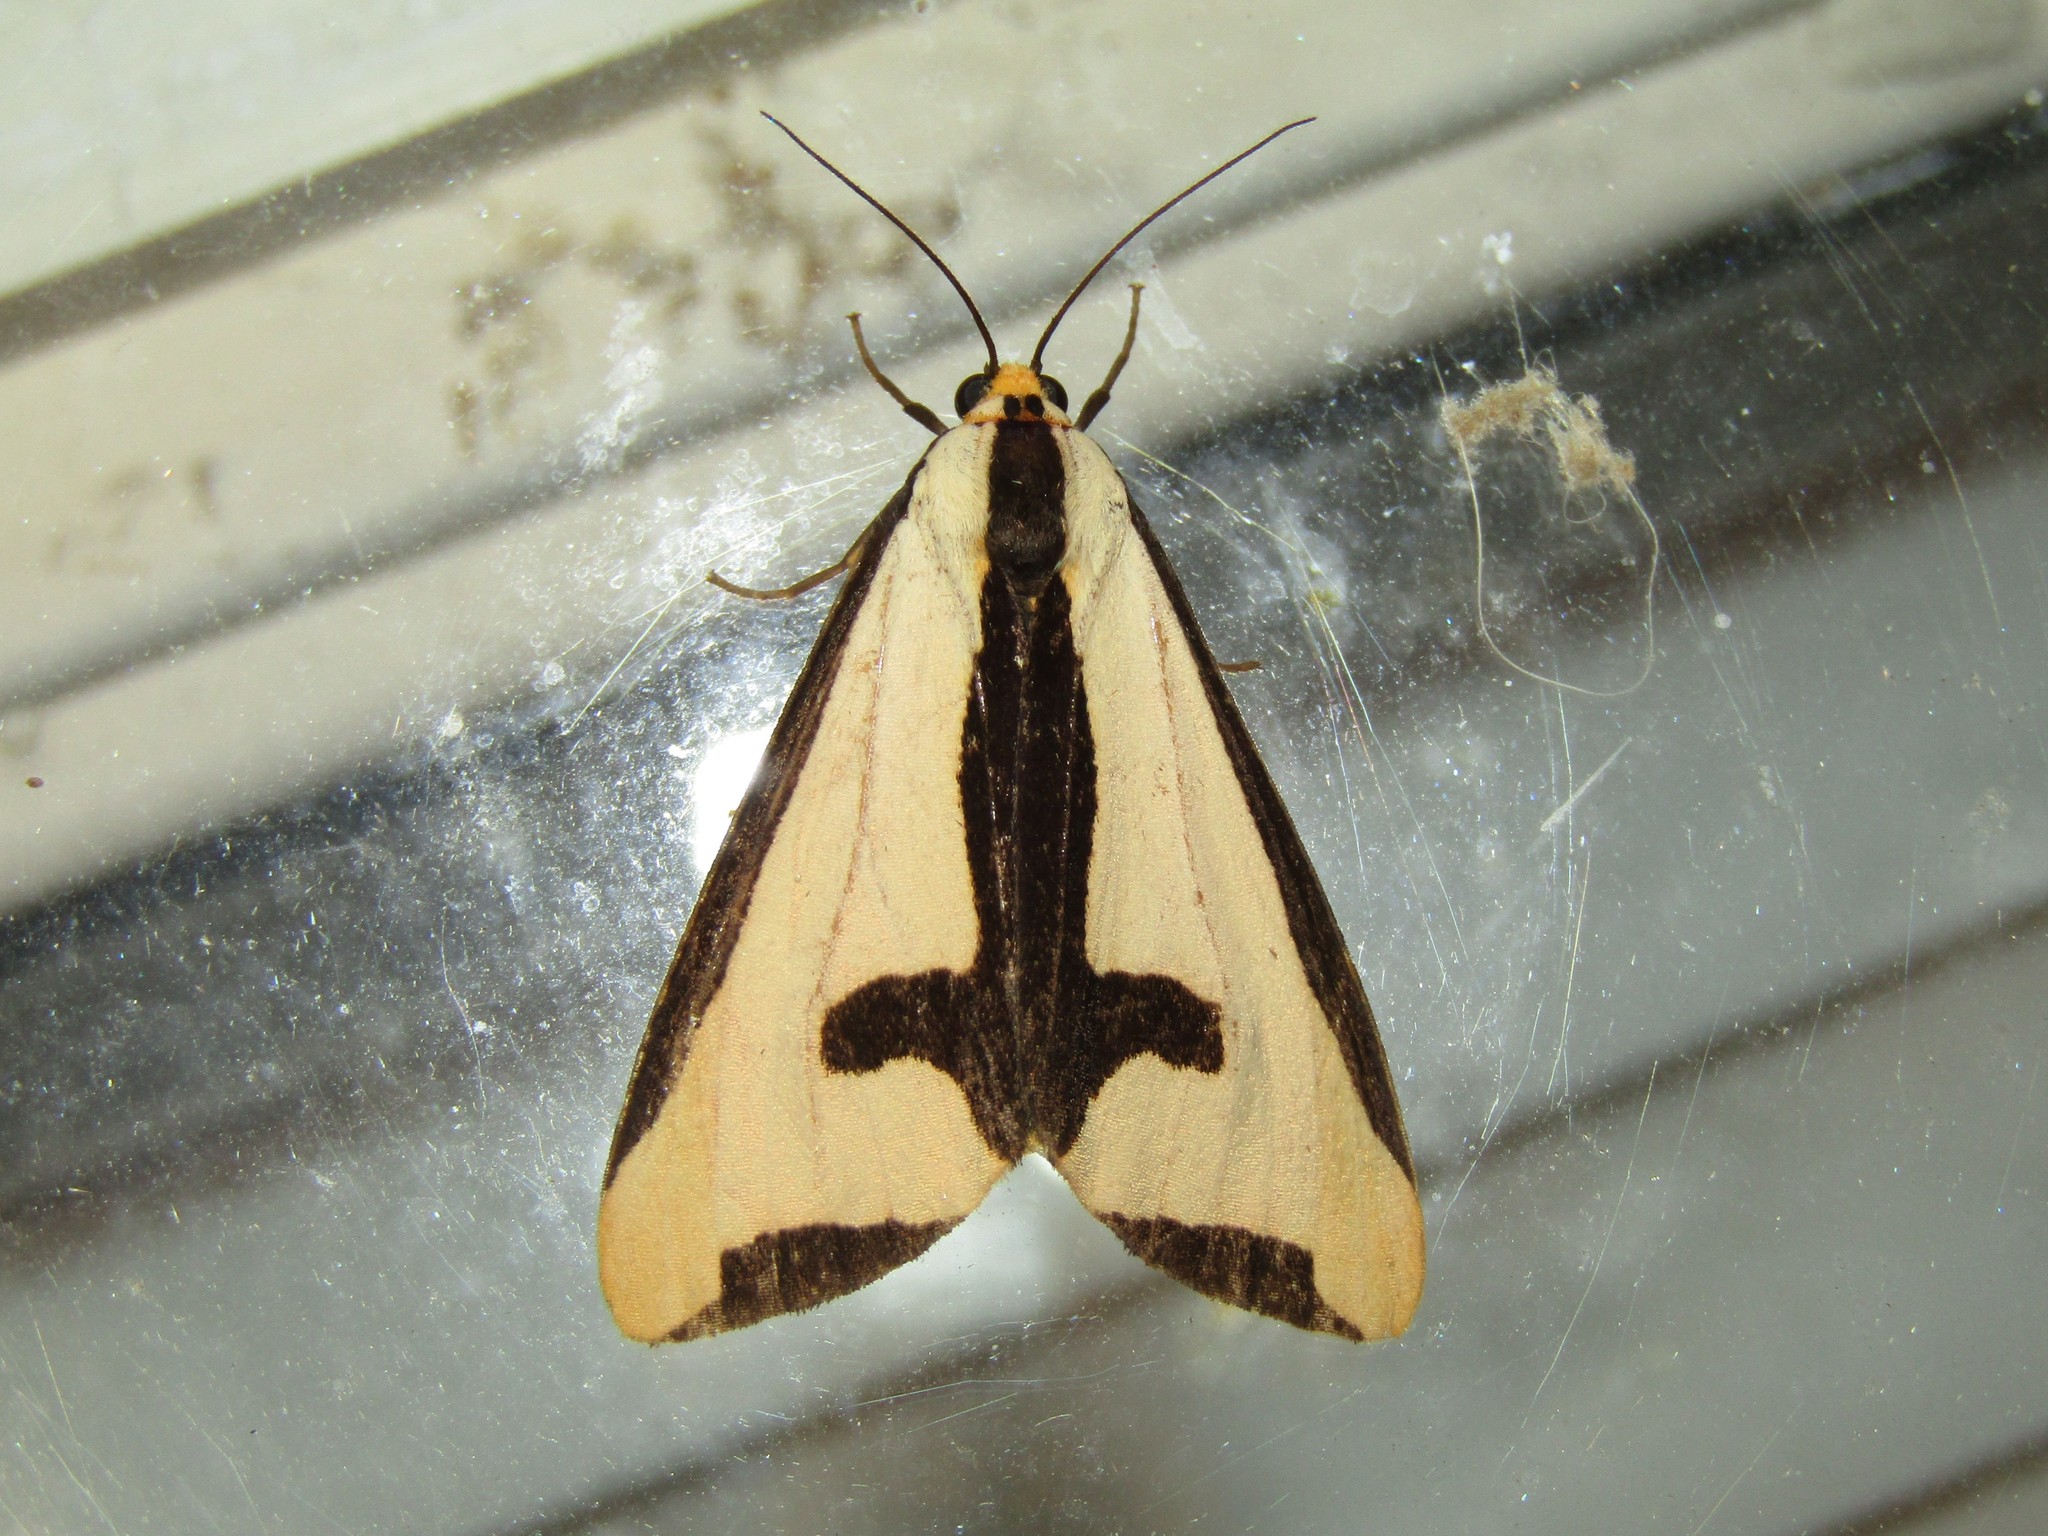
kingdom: Animalia
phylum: Arthropoda
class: Insecta
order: Lepidoptera
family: Erebidae
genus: Haploa
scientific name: Haploa clymene
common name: Clymene moth
